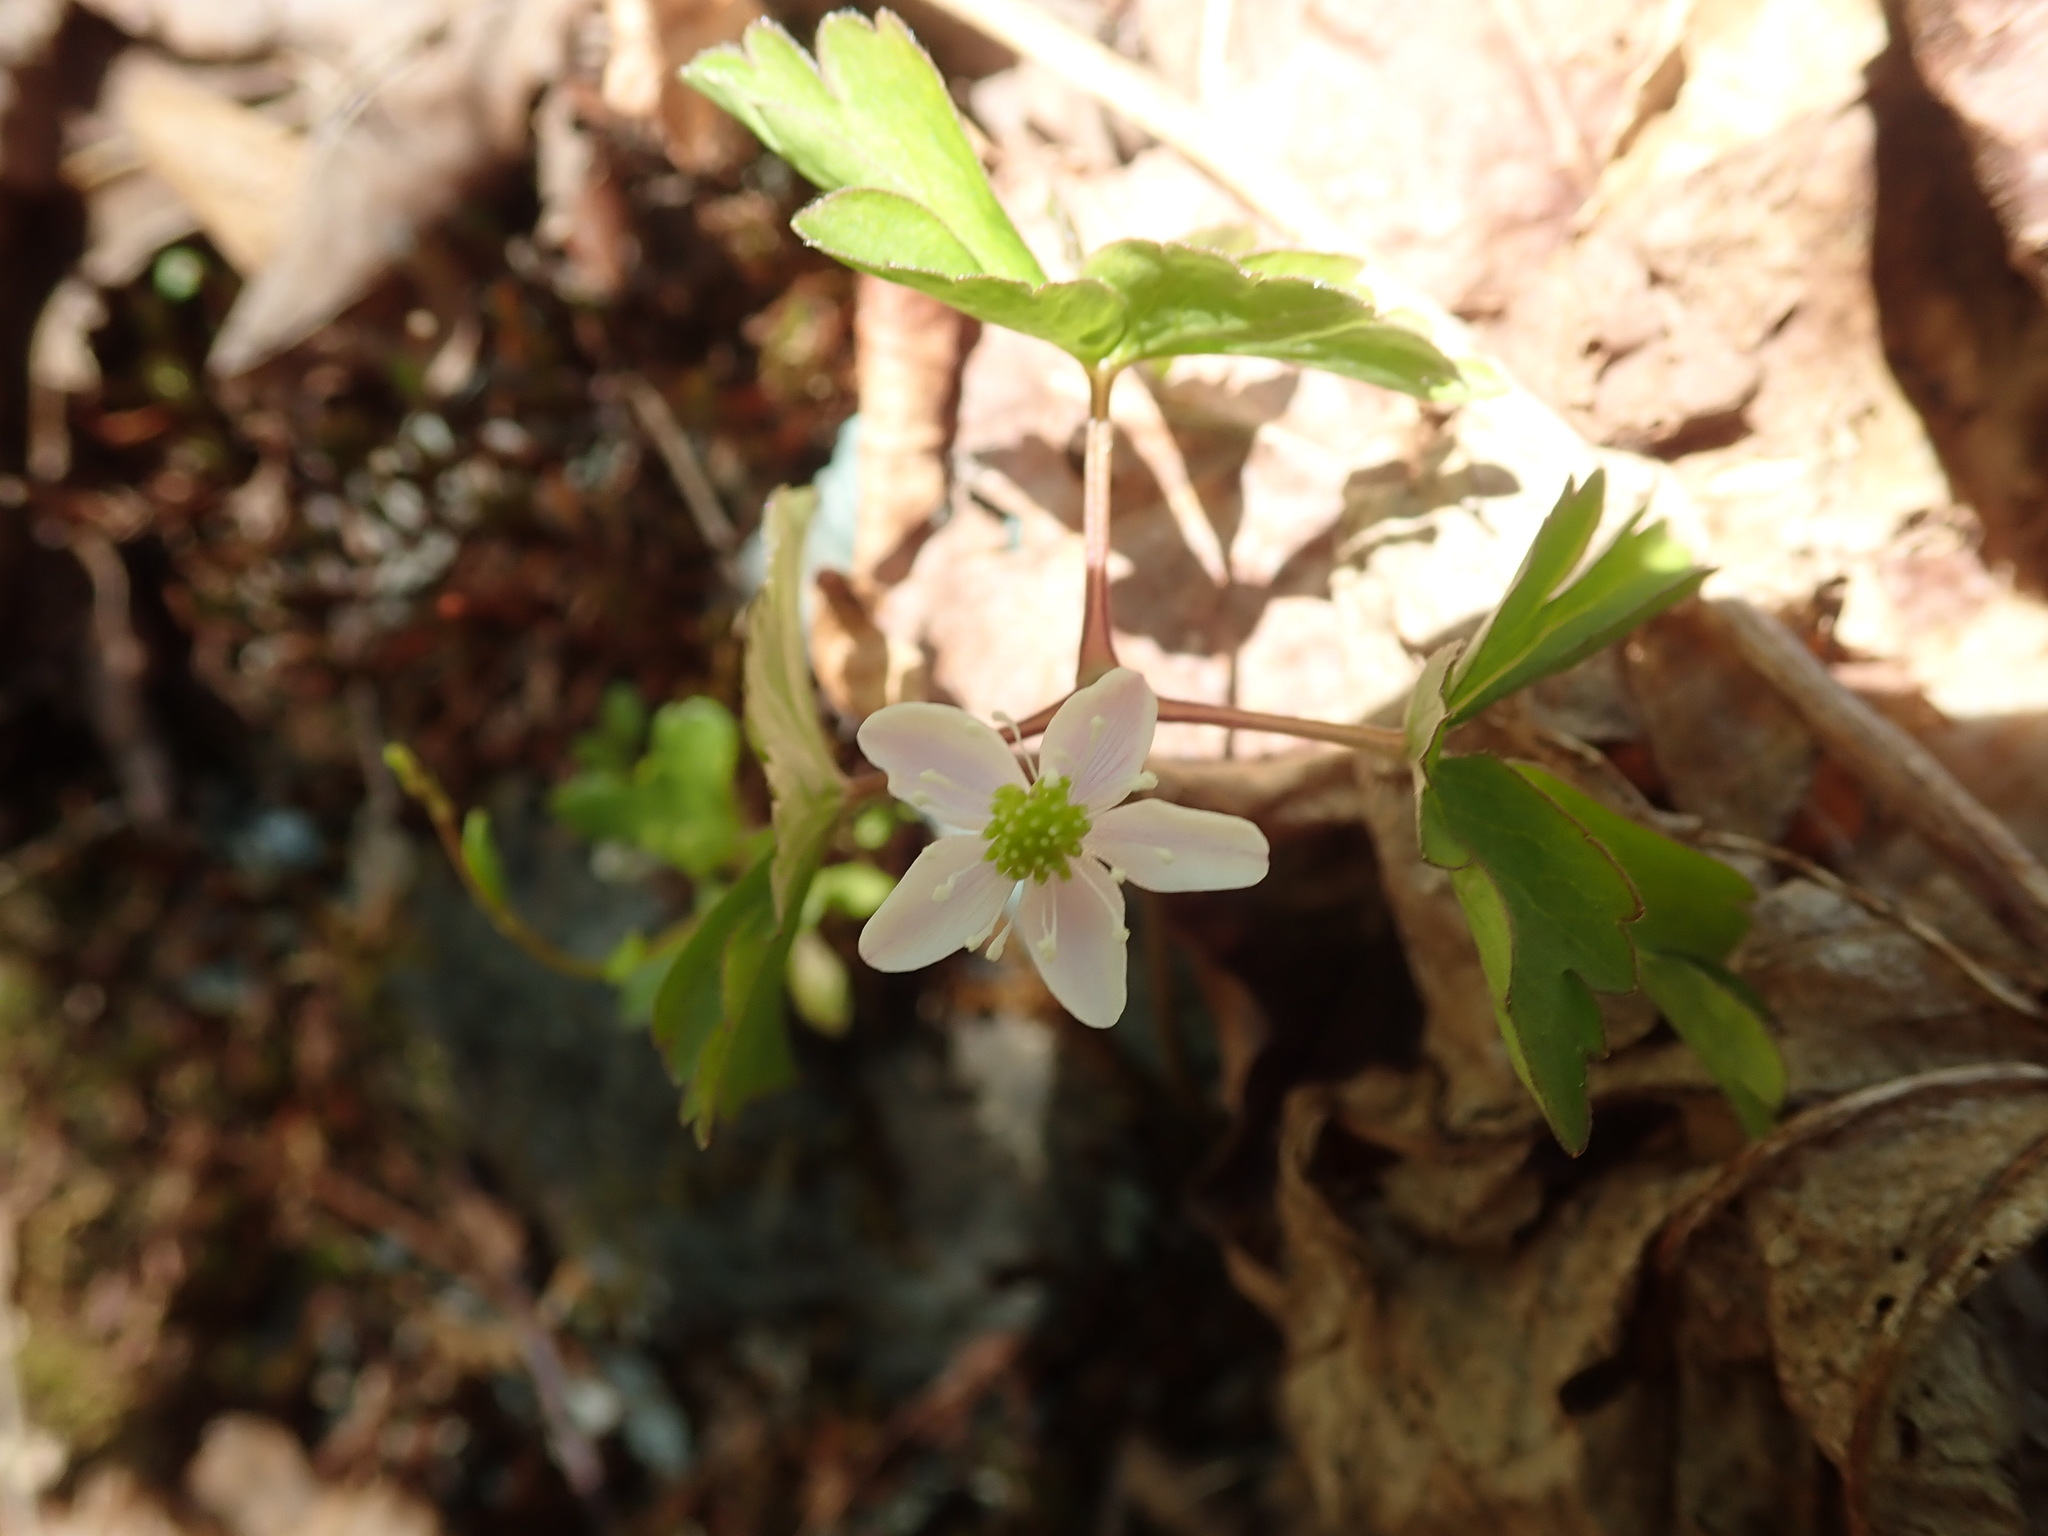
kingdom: Plantae
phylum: Tracheophyta
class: Magnoliopsida
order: Ranunculales
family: Ranunculaceae
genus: Anemone
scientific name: Anemone
